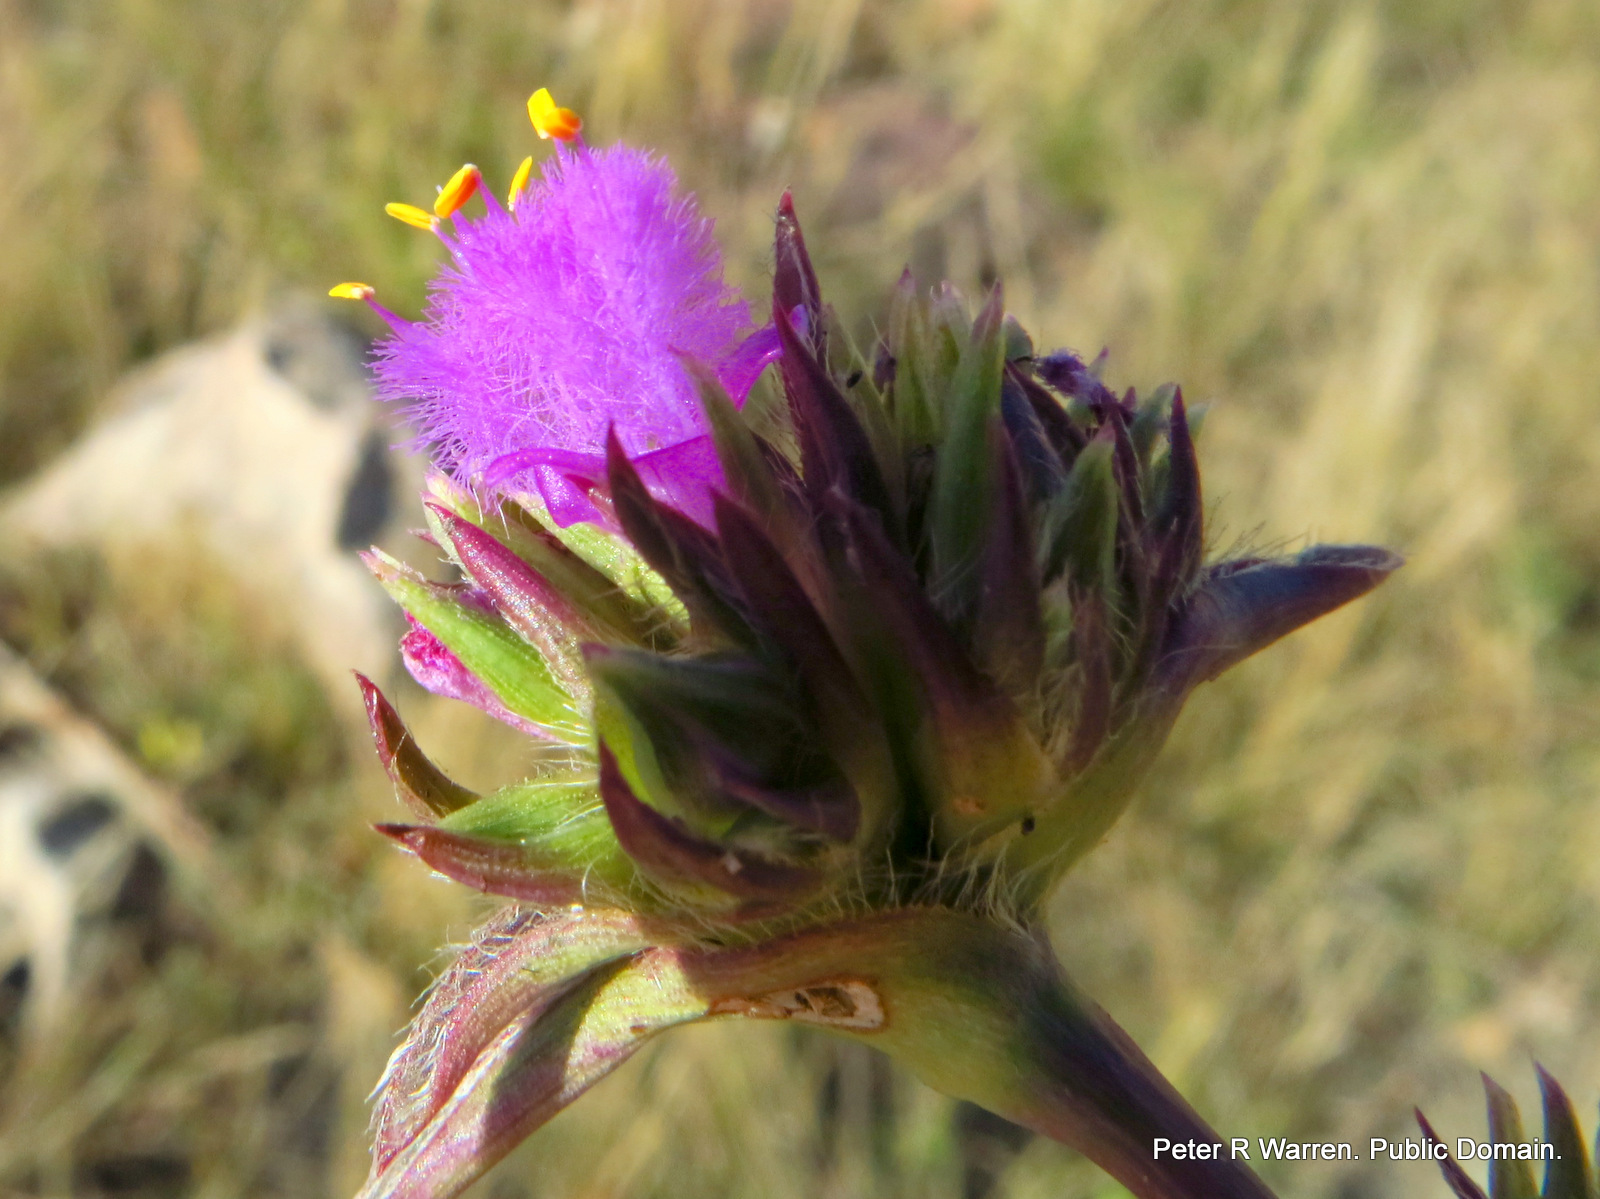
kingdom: Plantae
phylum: Tracheophyta
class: Liliopsida
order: Commelinales
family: Commelinaceae
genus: Cyanotis
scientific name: Cyanotis speciosa
